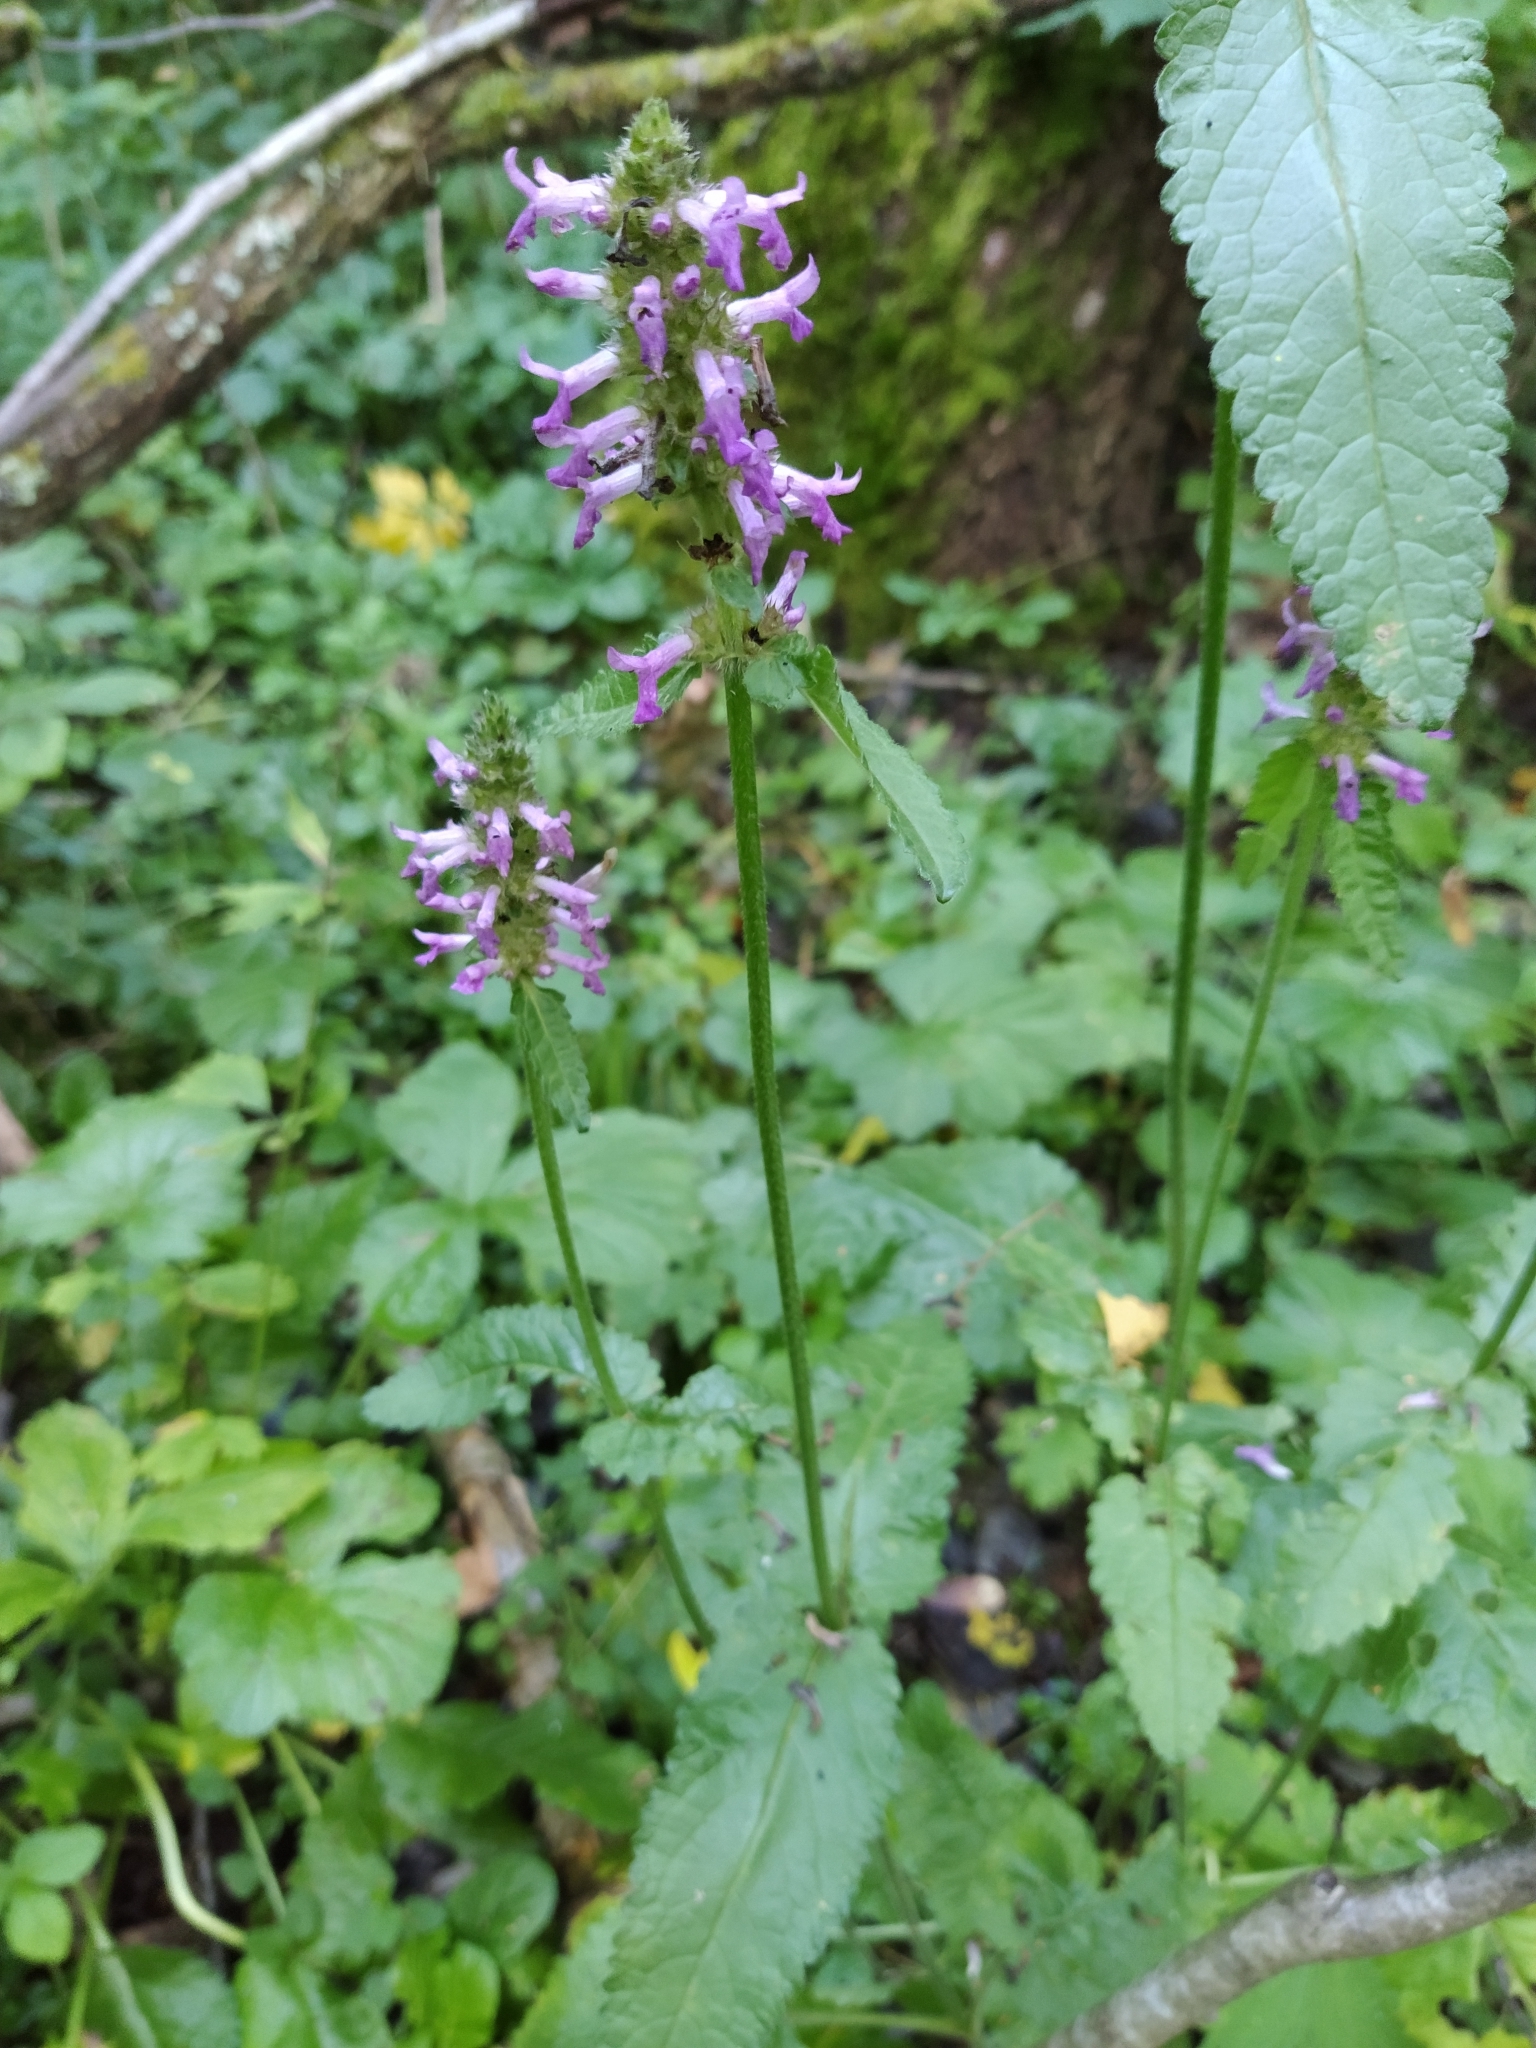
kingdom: Plantae
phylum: Tracheophyta
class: Magnoliopsida
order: Lamiales
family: Lamiaceae
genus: Betonica
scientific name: Betonica officinalis
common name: Bishop's-wort
